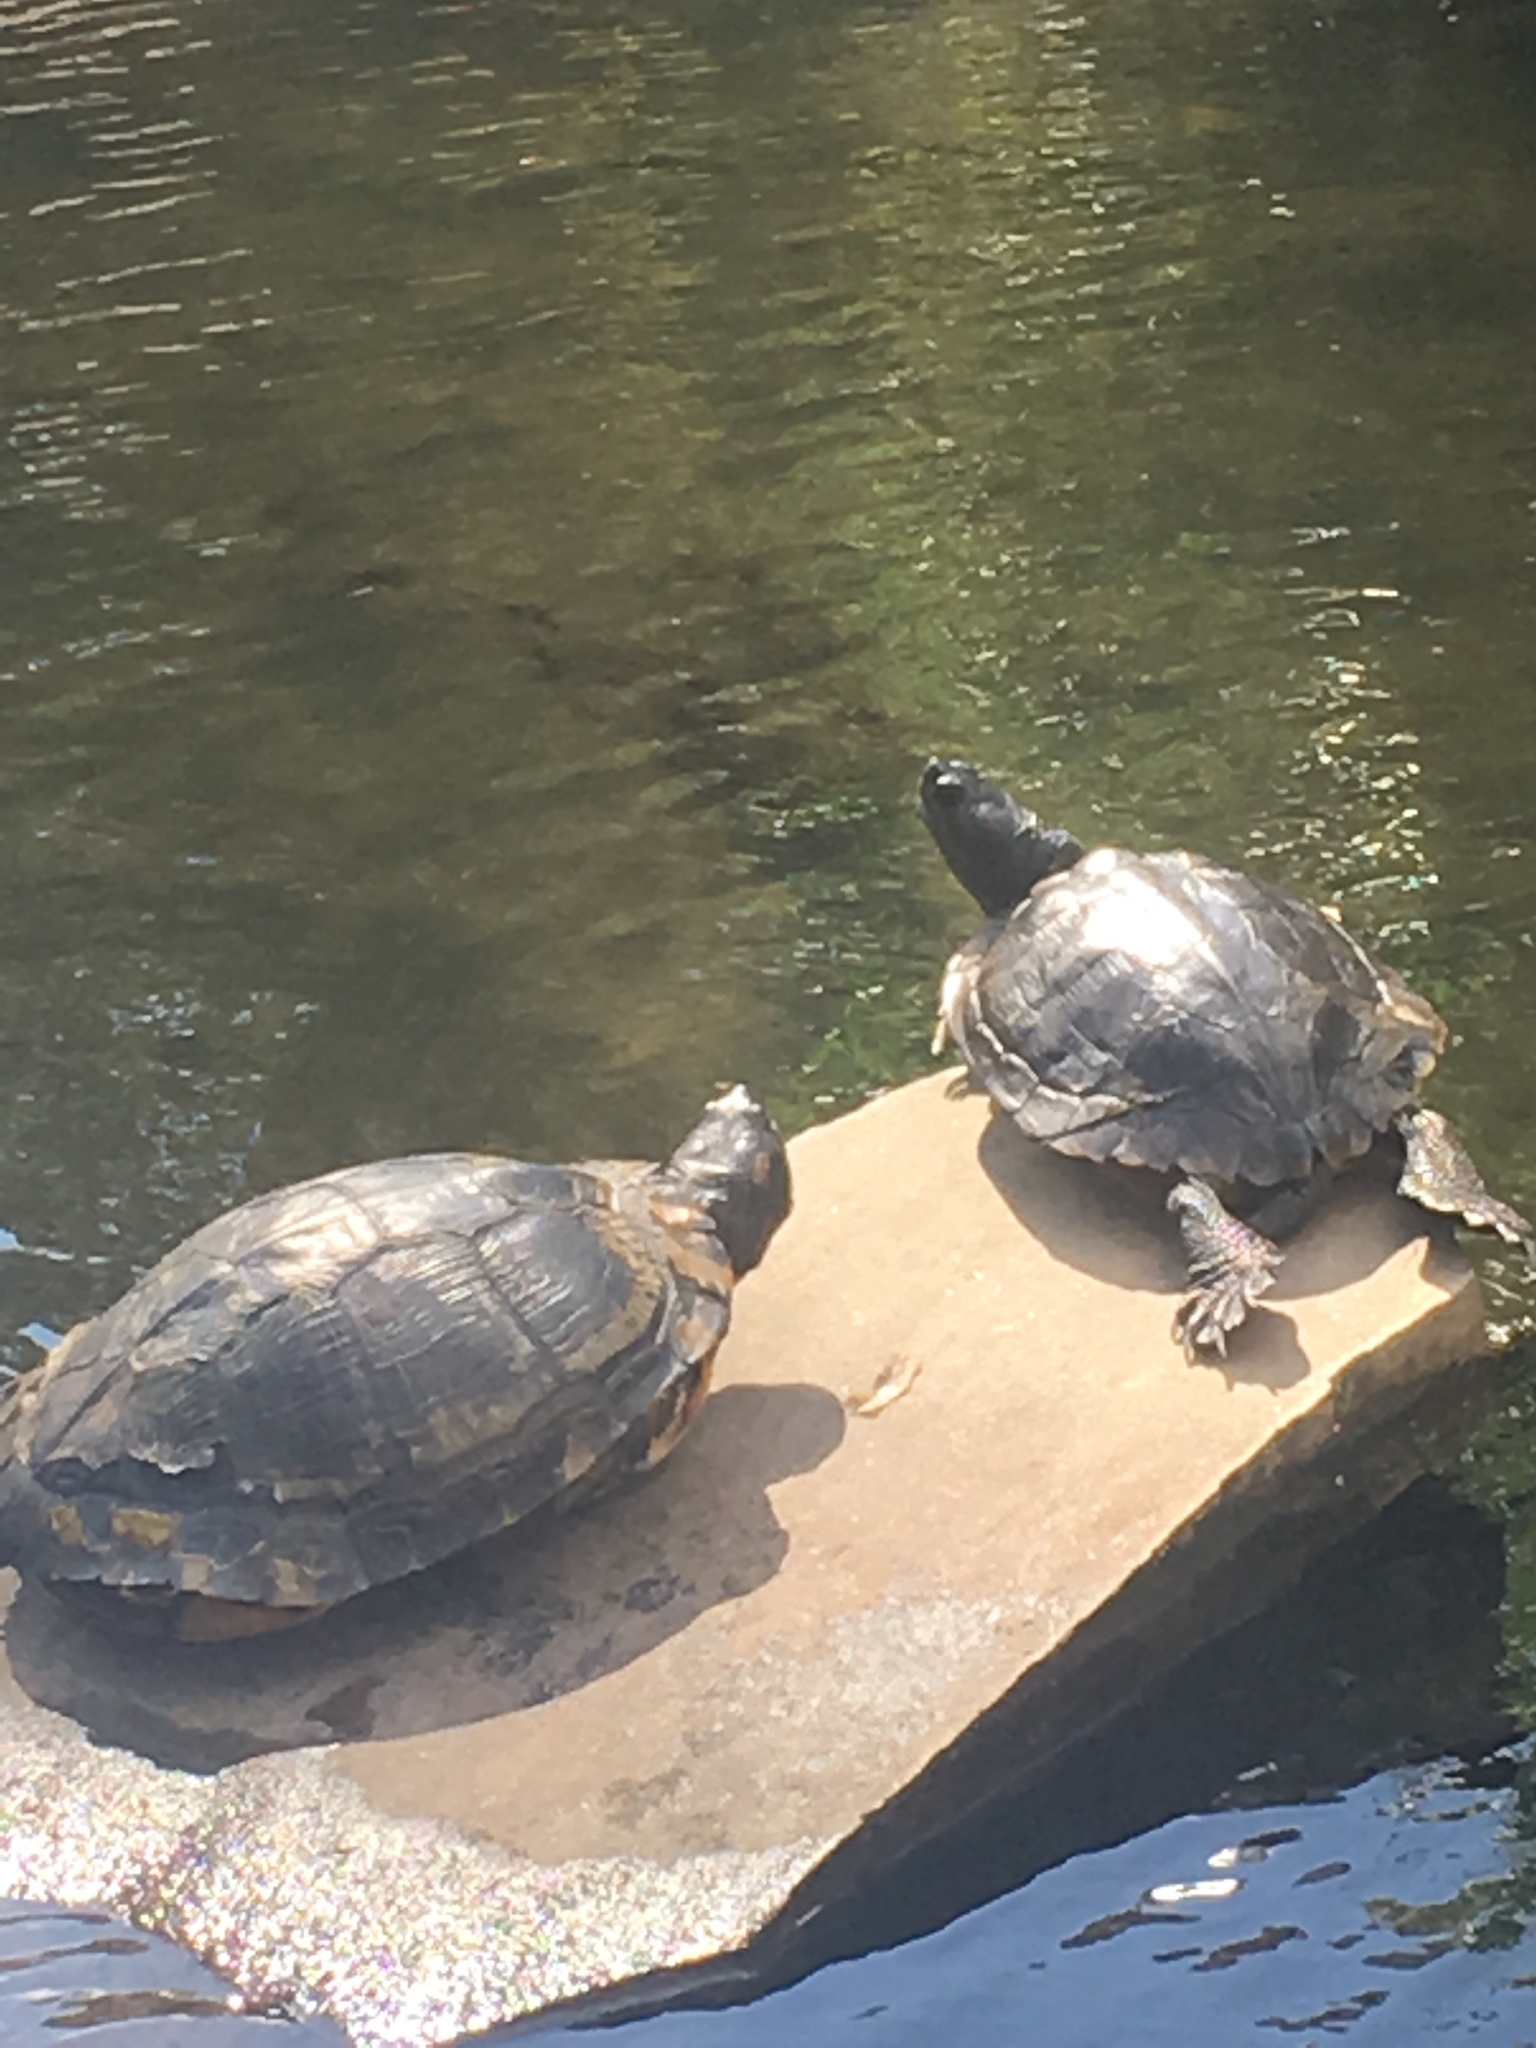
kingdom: Animalia
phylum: Chordata
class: Testudines
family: Emydidae
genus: Trachemys
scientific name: Trachemys scripta
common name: Slider
